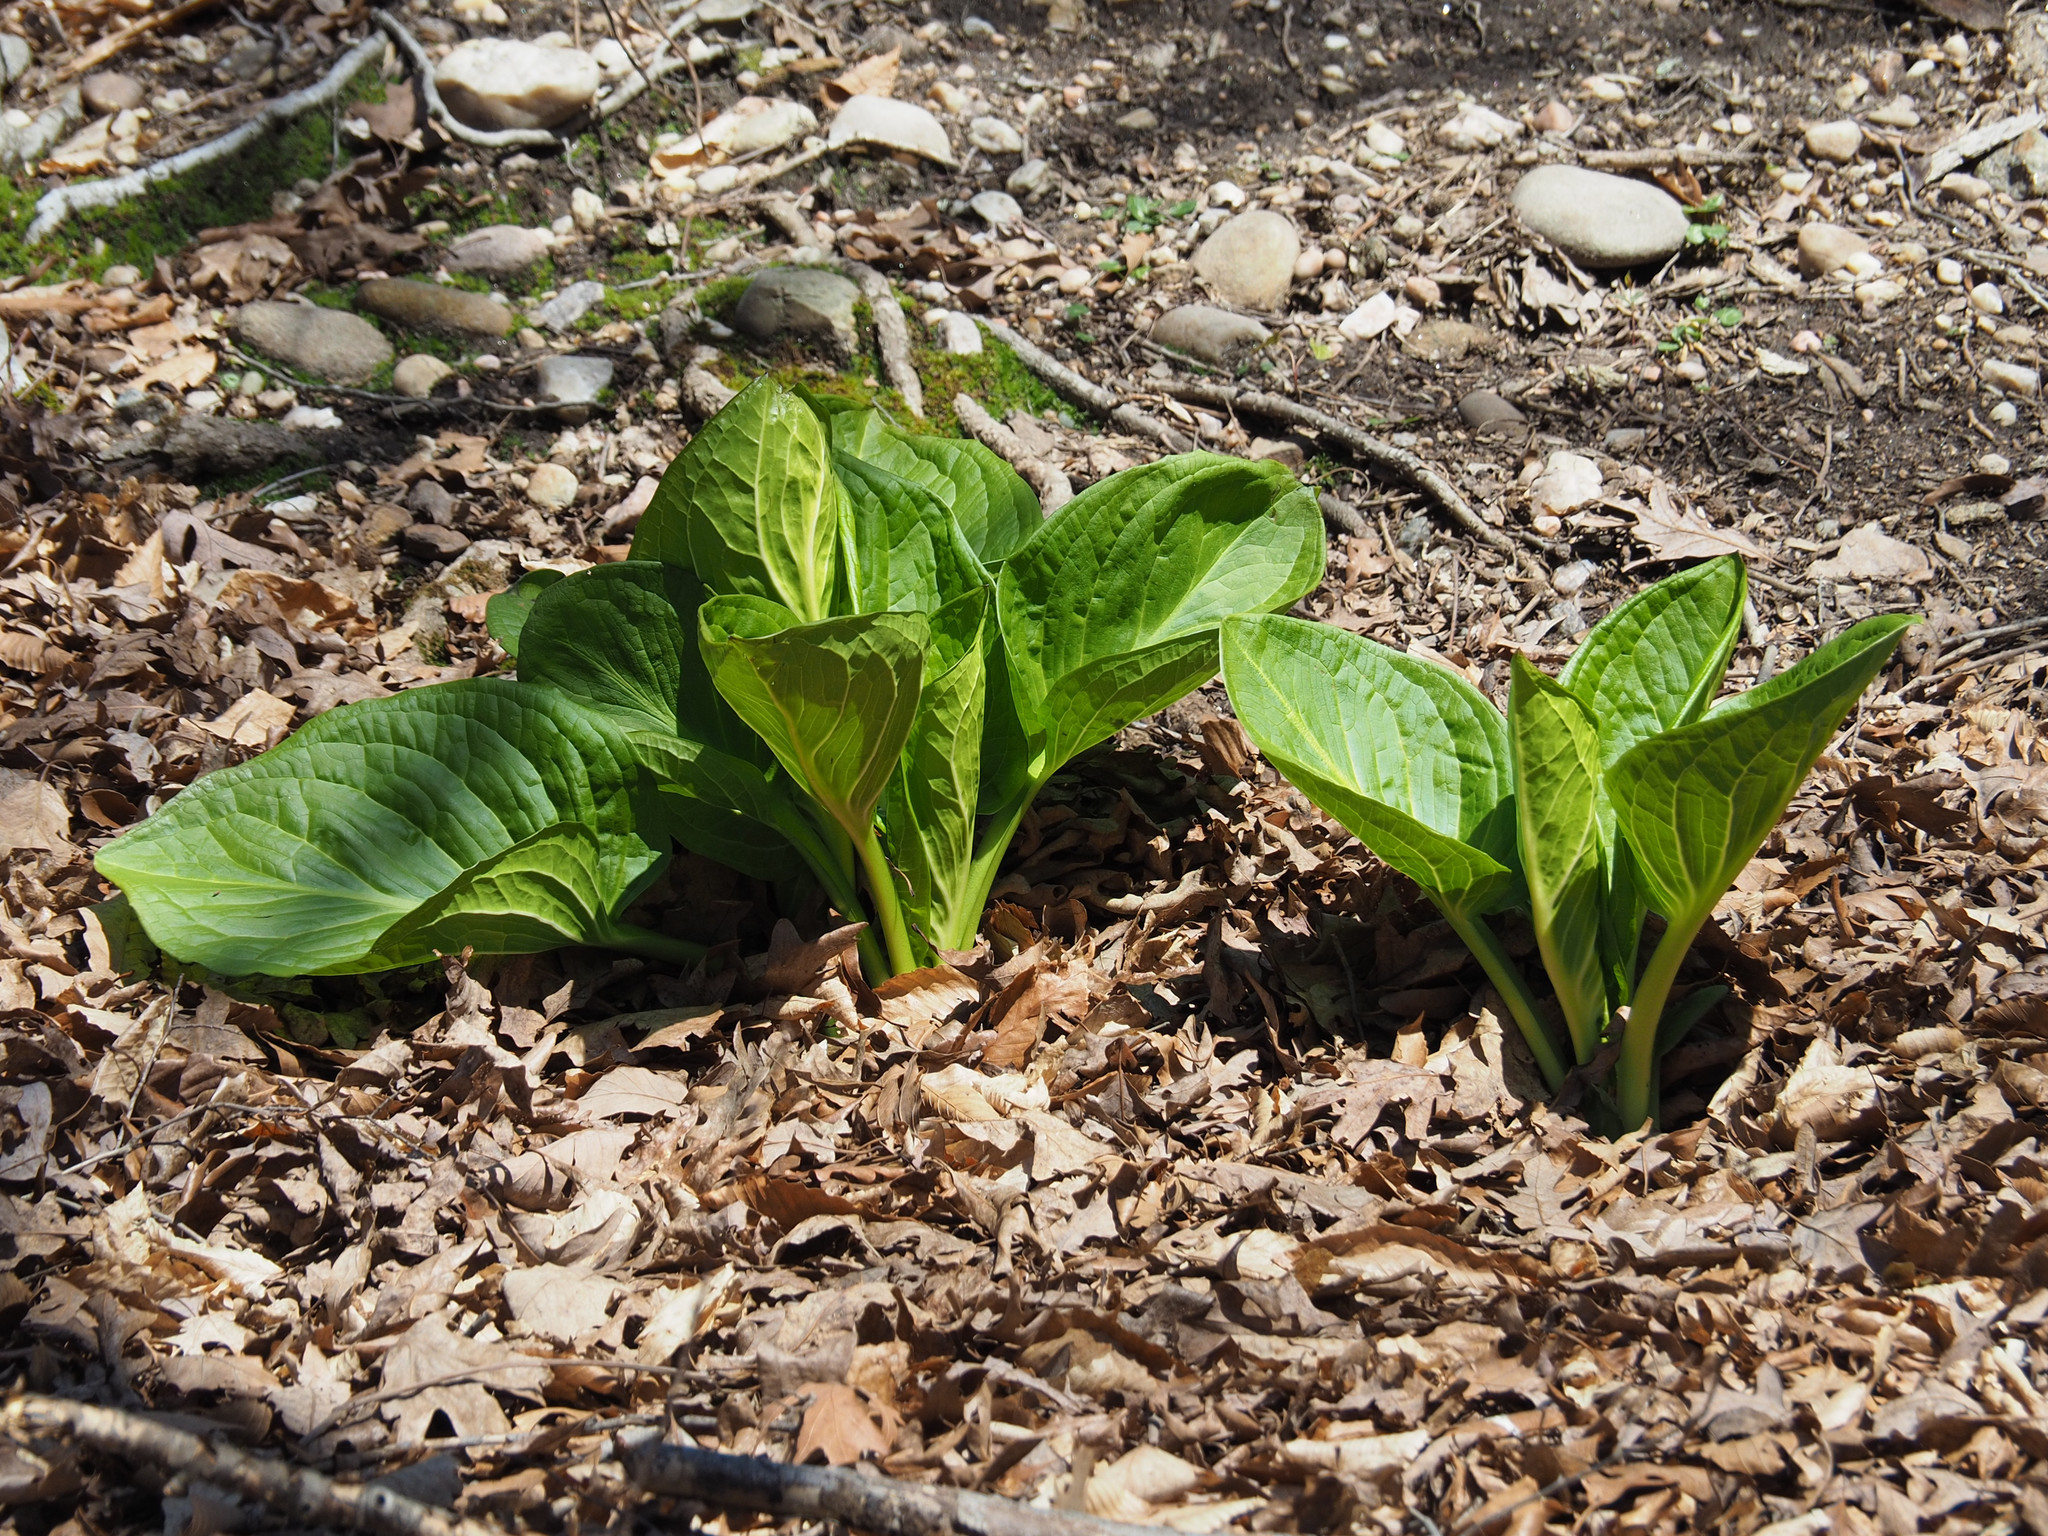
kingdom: Plantae
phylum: Tracheophyta
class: Liliopsida
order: Alismatales
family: Araceae
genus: Symplocarpus
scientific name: Symplocarpus foetidus
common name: Eastern skunk cabbage
